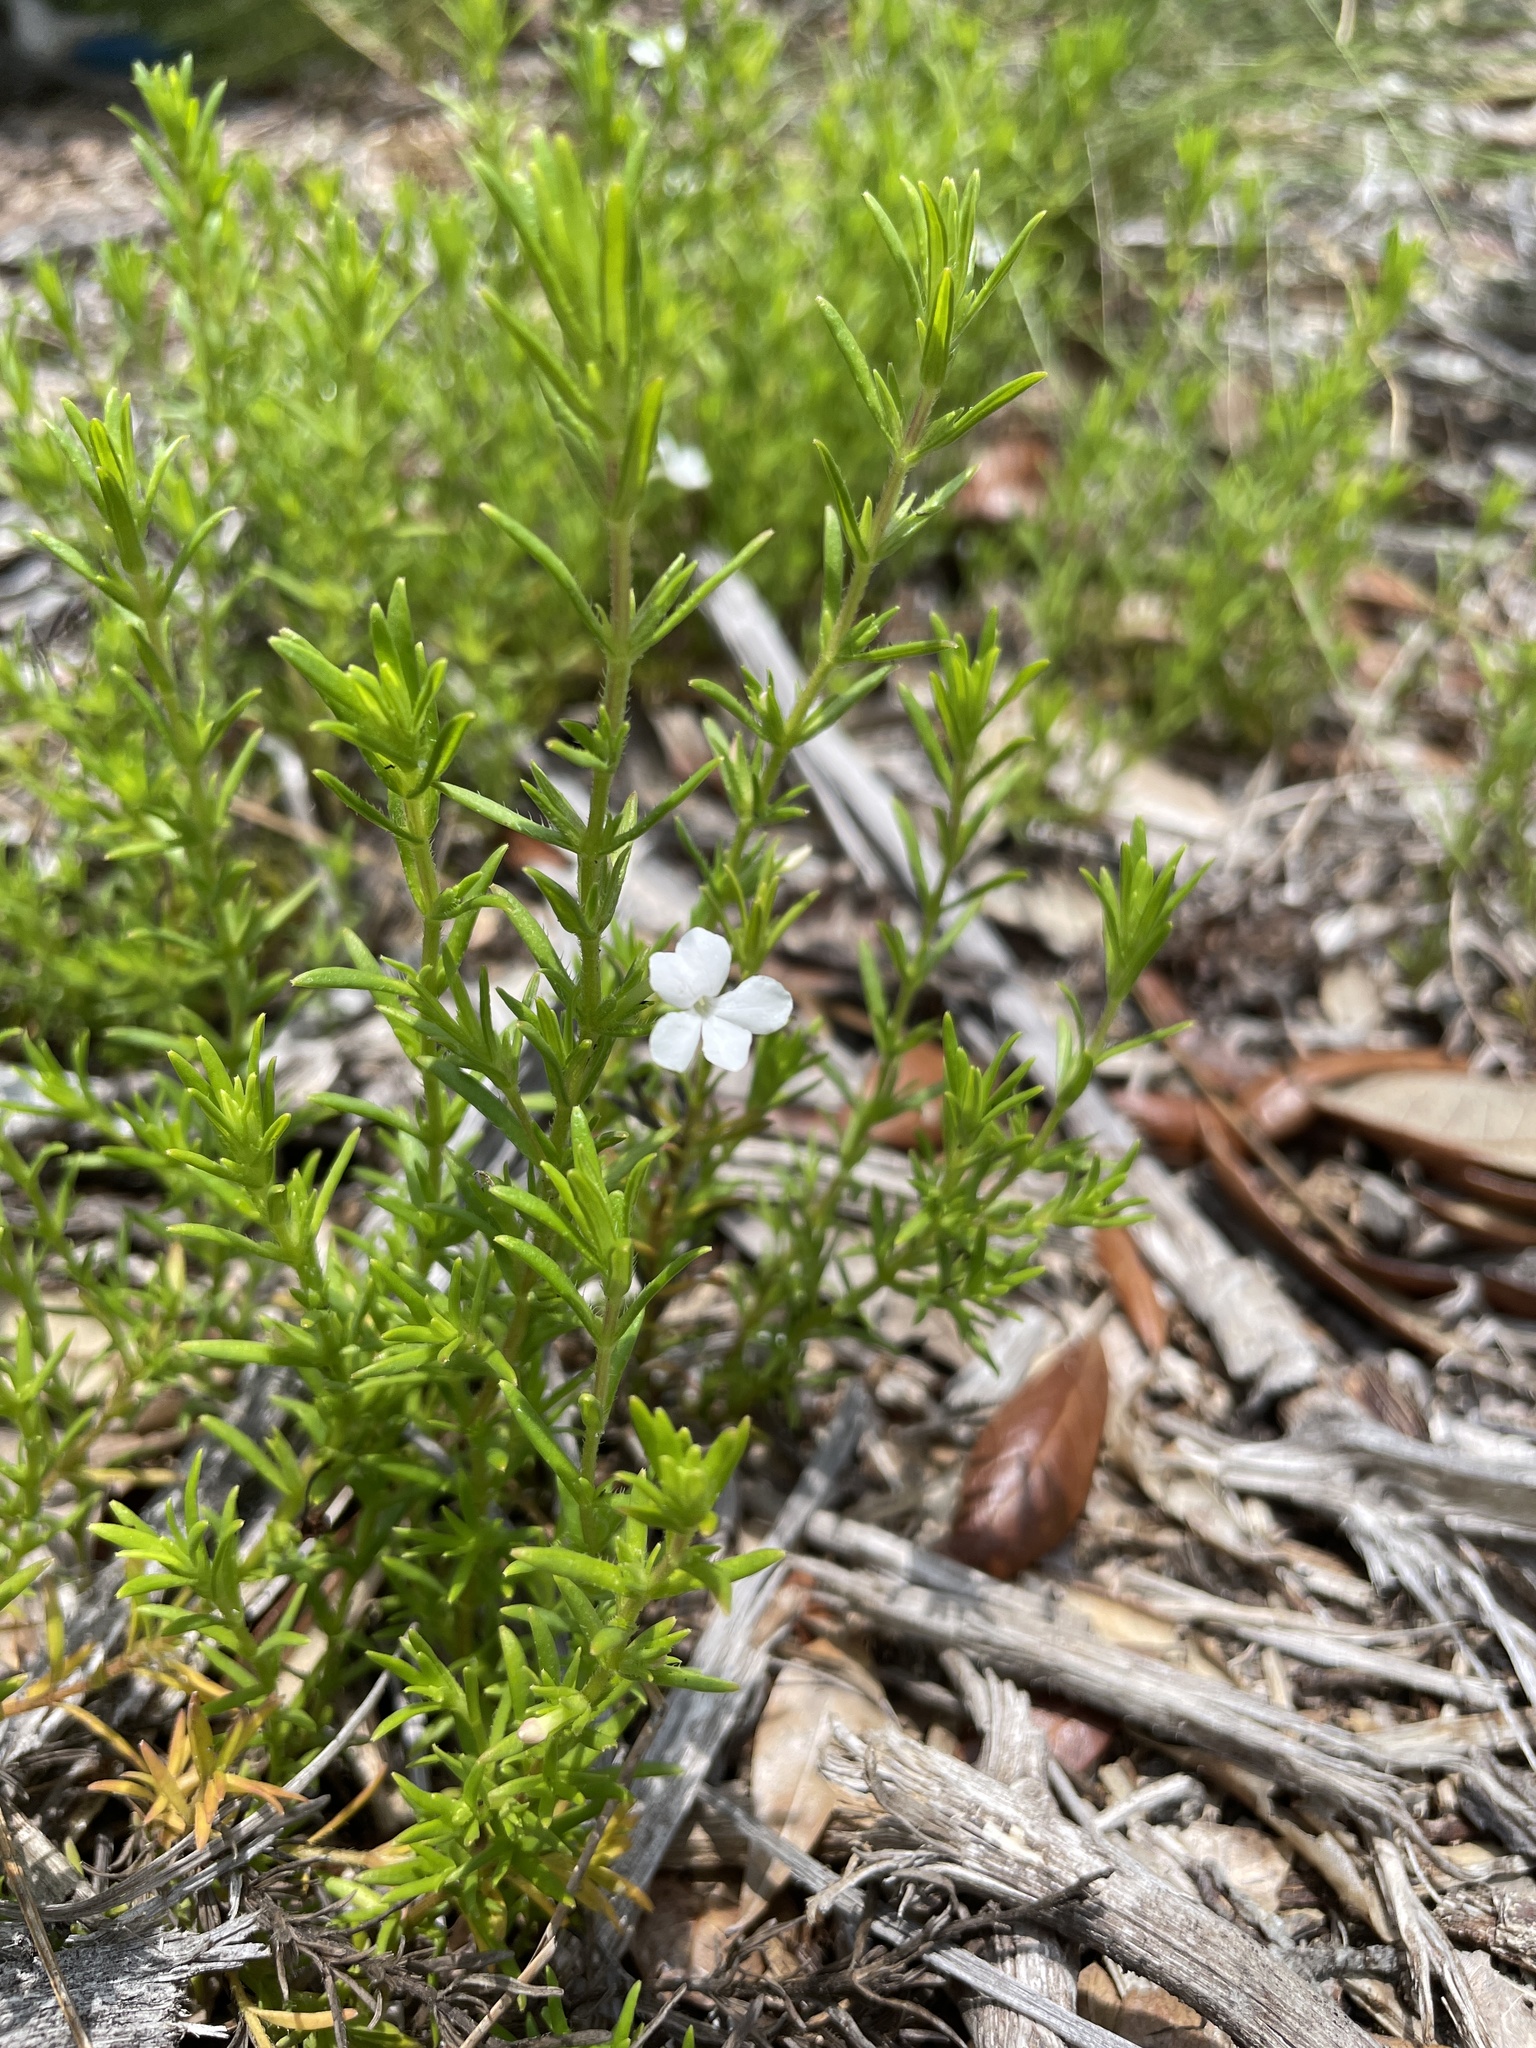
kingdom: Plantae
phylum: Tracheophyta
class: Magnoliopsida
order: Lamiales
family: Plantaginaceae
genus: Gratiola
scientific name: Gratiola hispida
